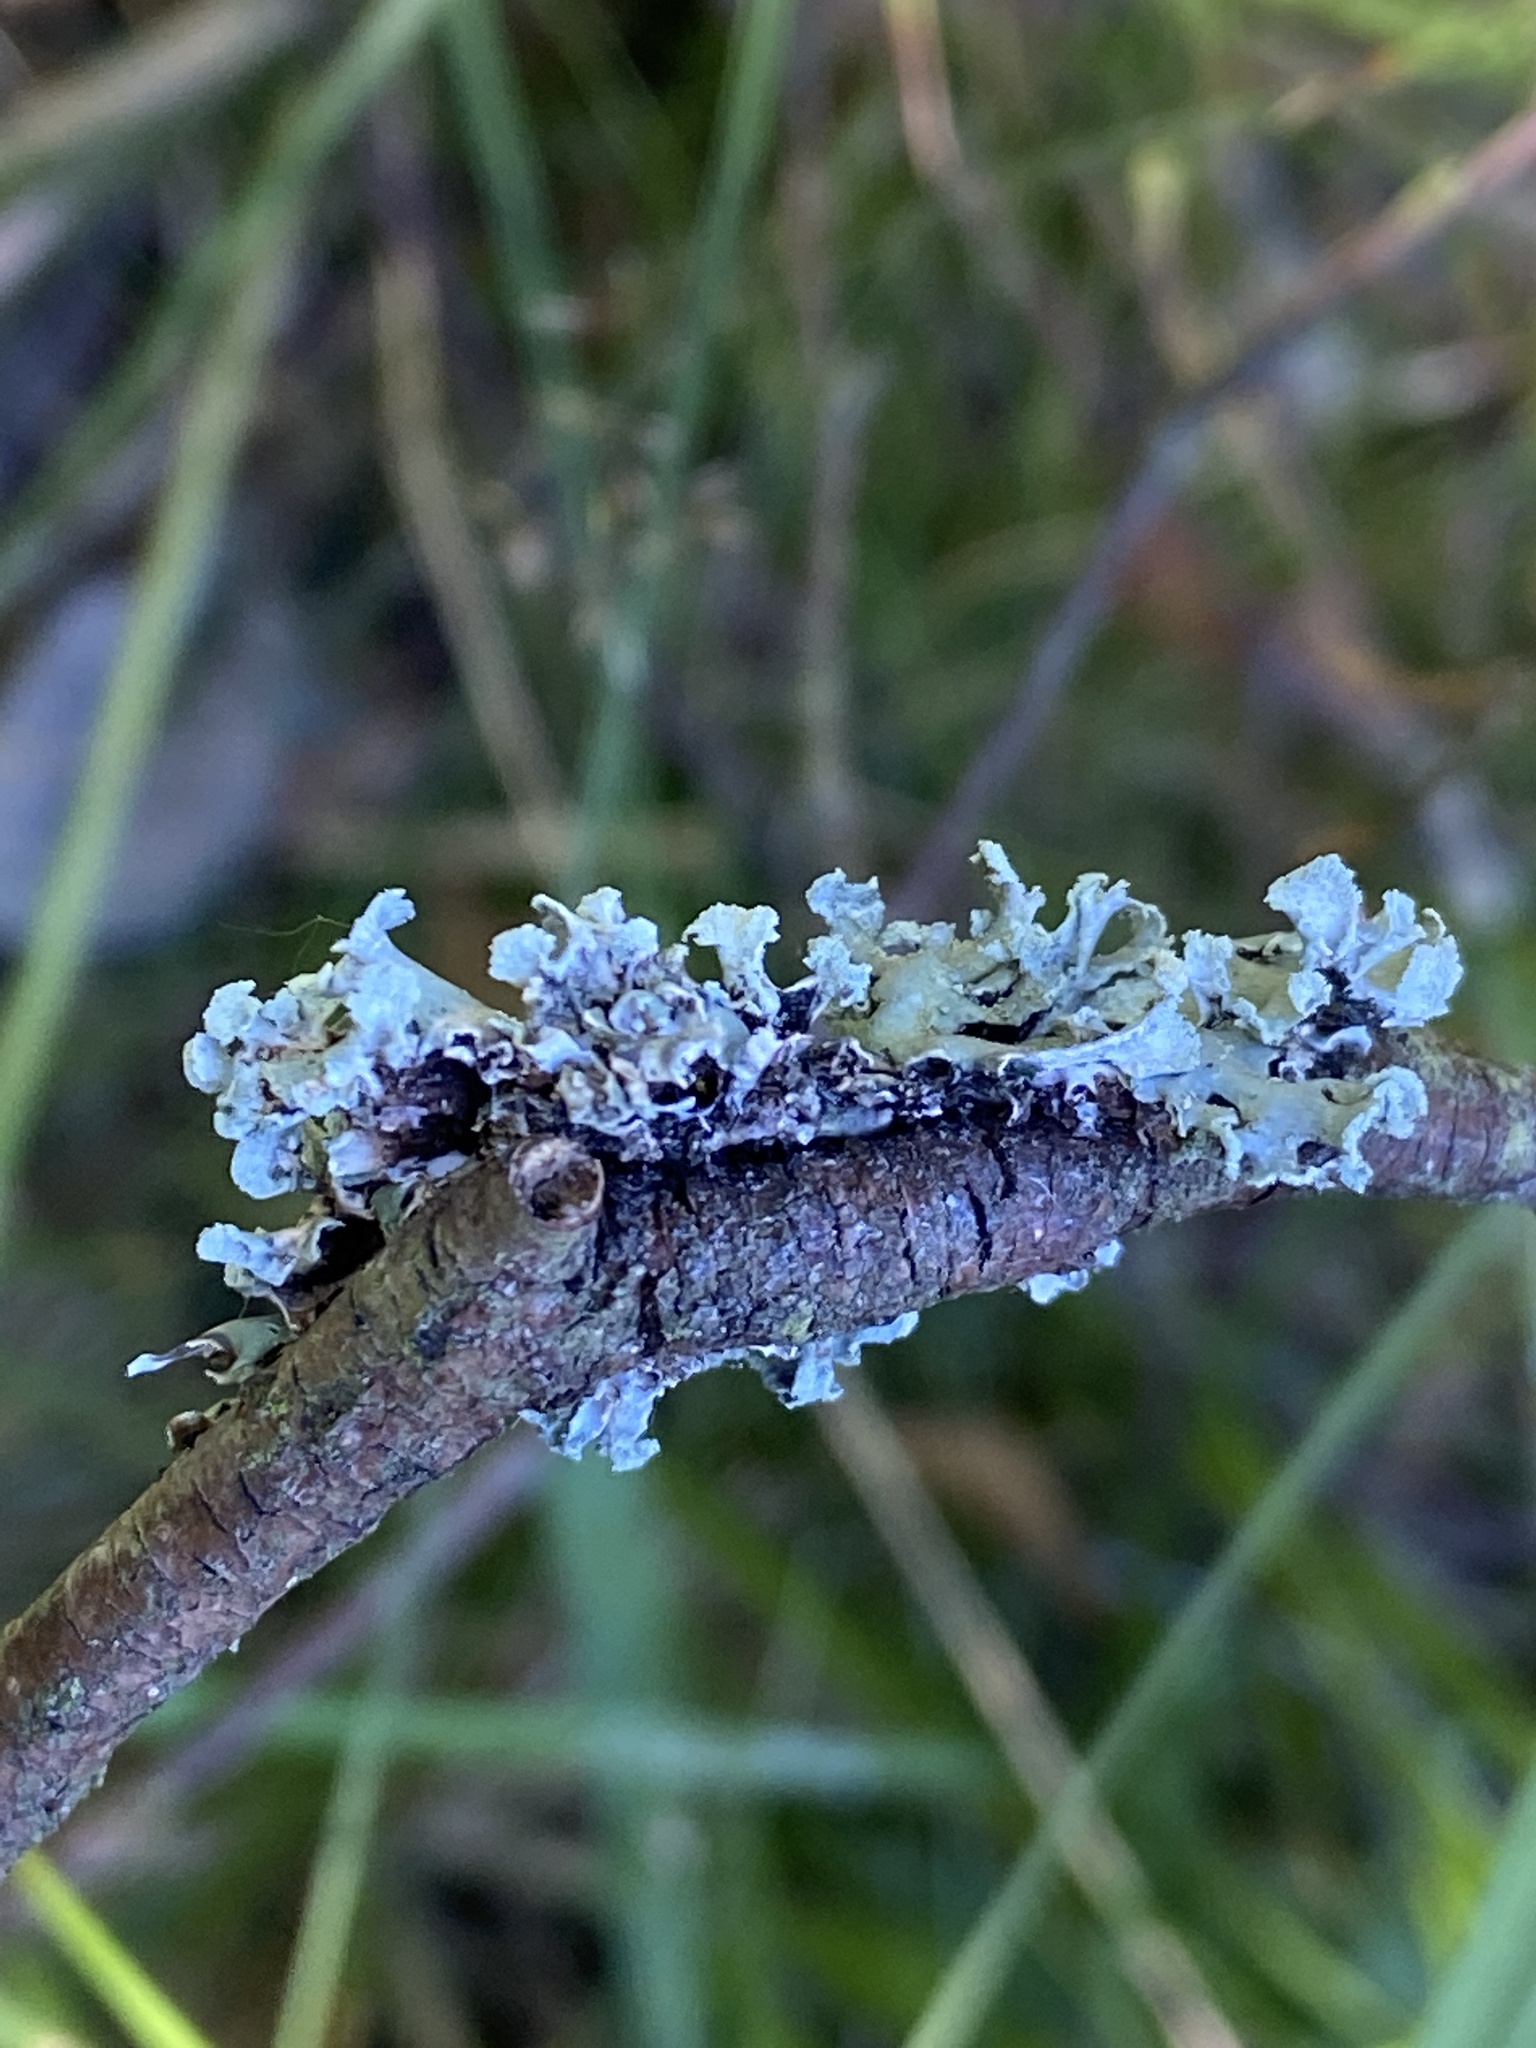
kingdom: Fungi
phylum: Ascomycota
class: Lecanoromycetes
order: Lecanorales
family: Parmeliaceae
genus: Hypogymnia
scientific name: Hypogymnia physodes
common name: Dark crottle
